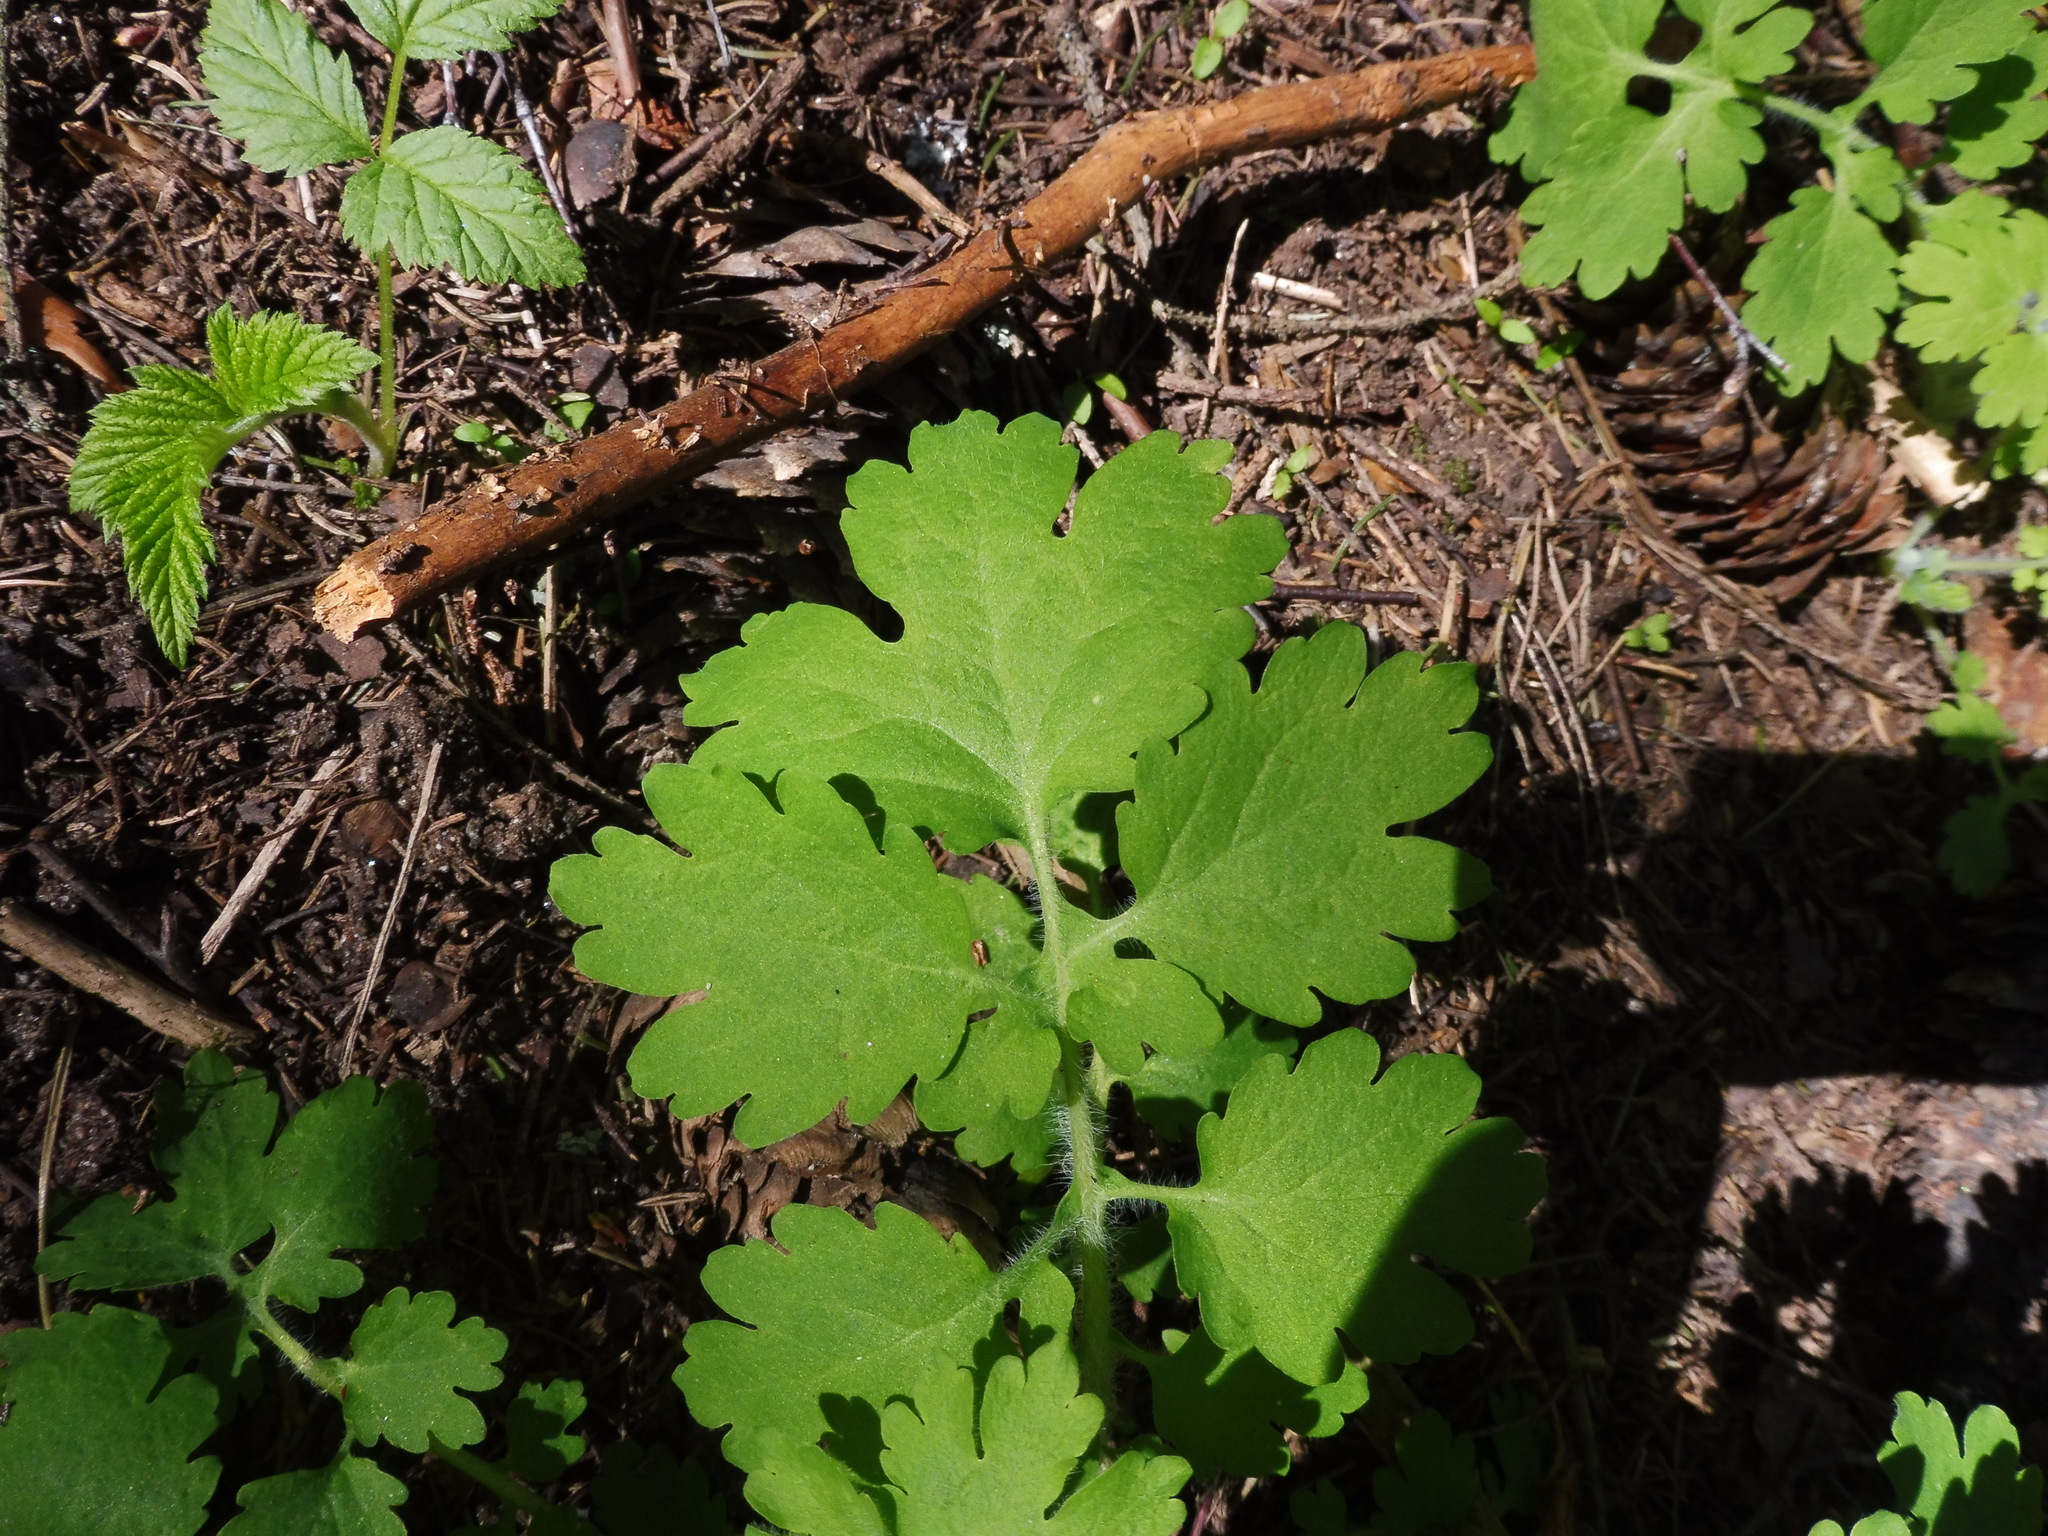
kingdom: Plantae
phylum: Tracheophyta
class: Magnoliopsida
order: Ranunculales
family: Papaveraceae
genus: Chelidonium
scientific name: Chelidonium majus
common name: Greater celandine
